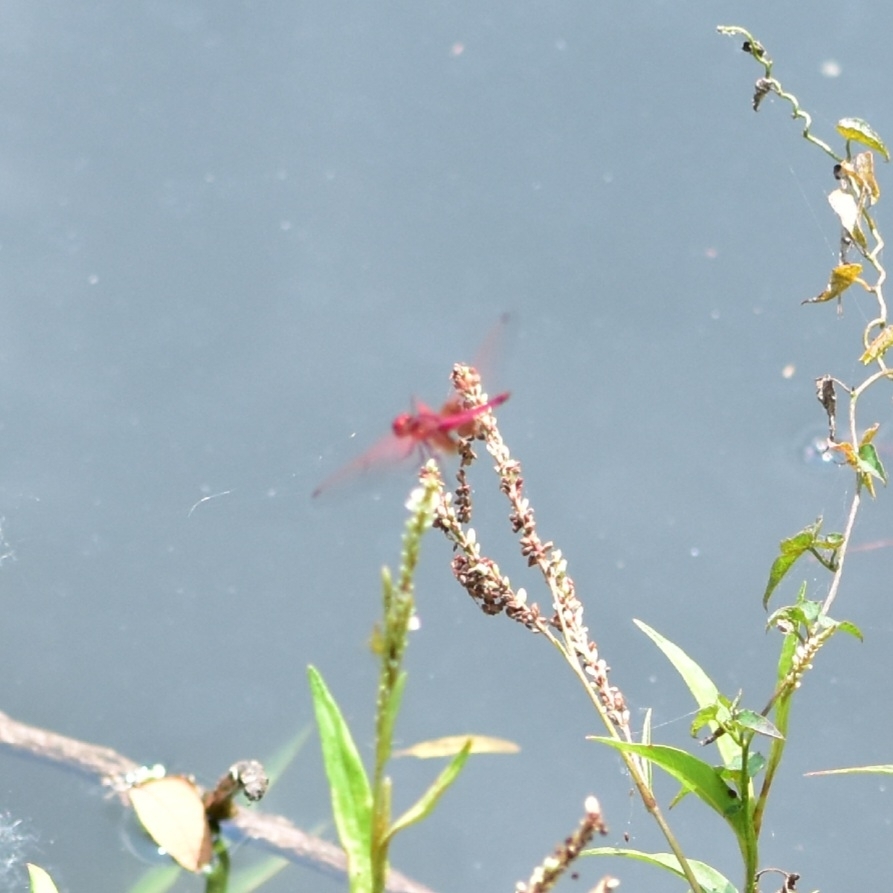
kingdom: Animalia
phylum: Arthropoda
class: Insecta
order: Odonata
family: Libellulidae
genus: Trithemis
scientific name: Trithemis aurora
